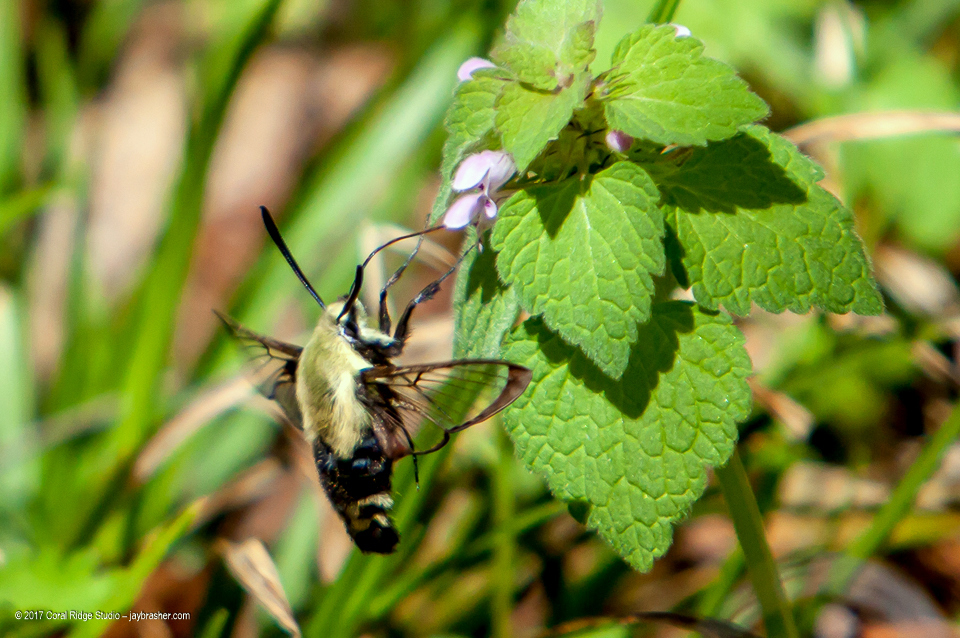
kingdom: Plantae
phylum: Tracheophyta
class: Magnoliopsida
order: Lamiales
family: Lamiaceae
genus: Lamium
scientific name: Lamium purpureum
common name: Red dead-nettle
